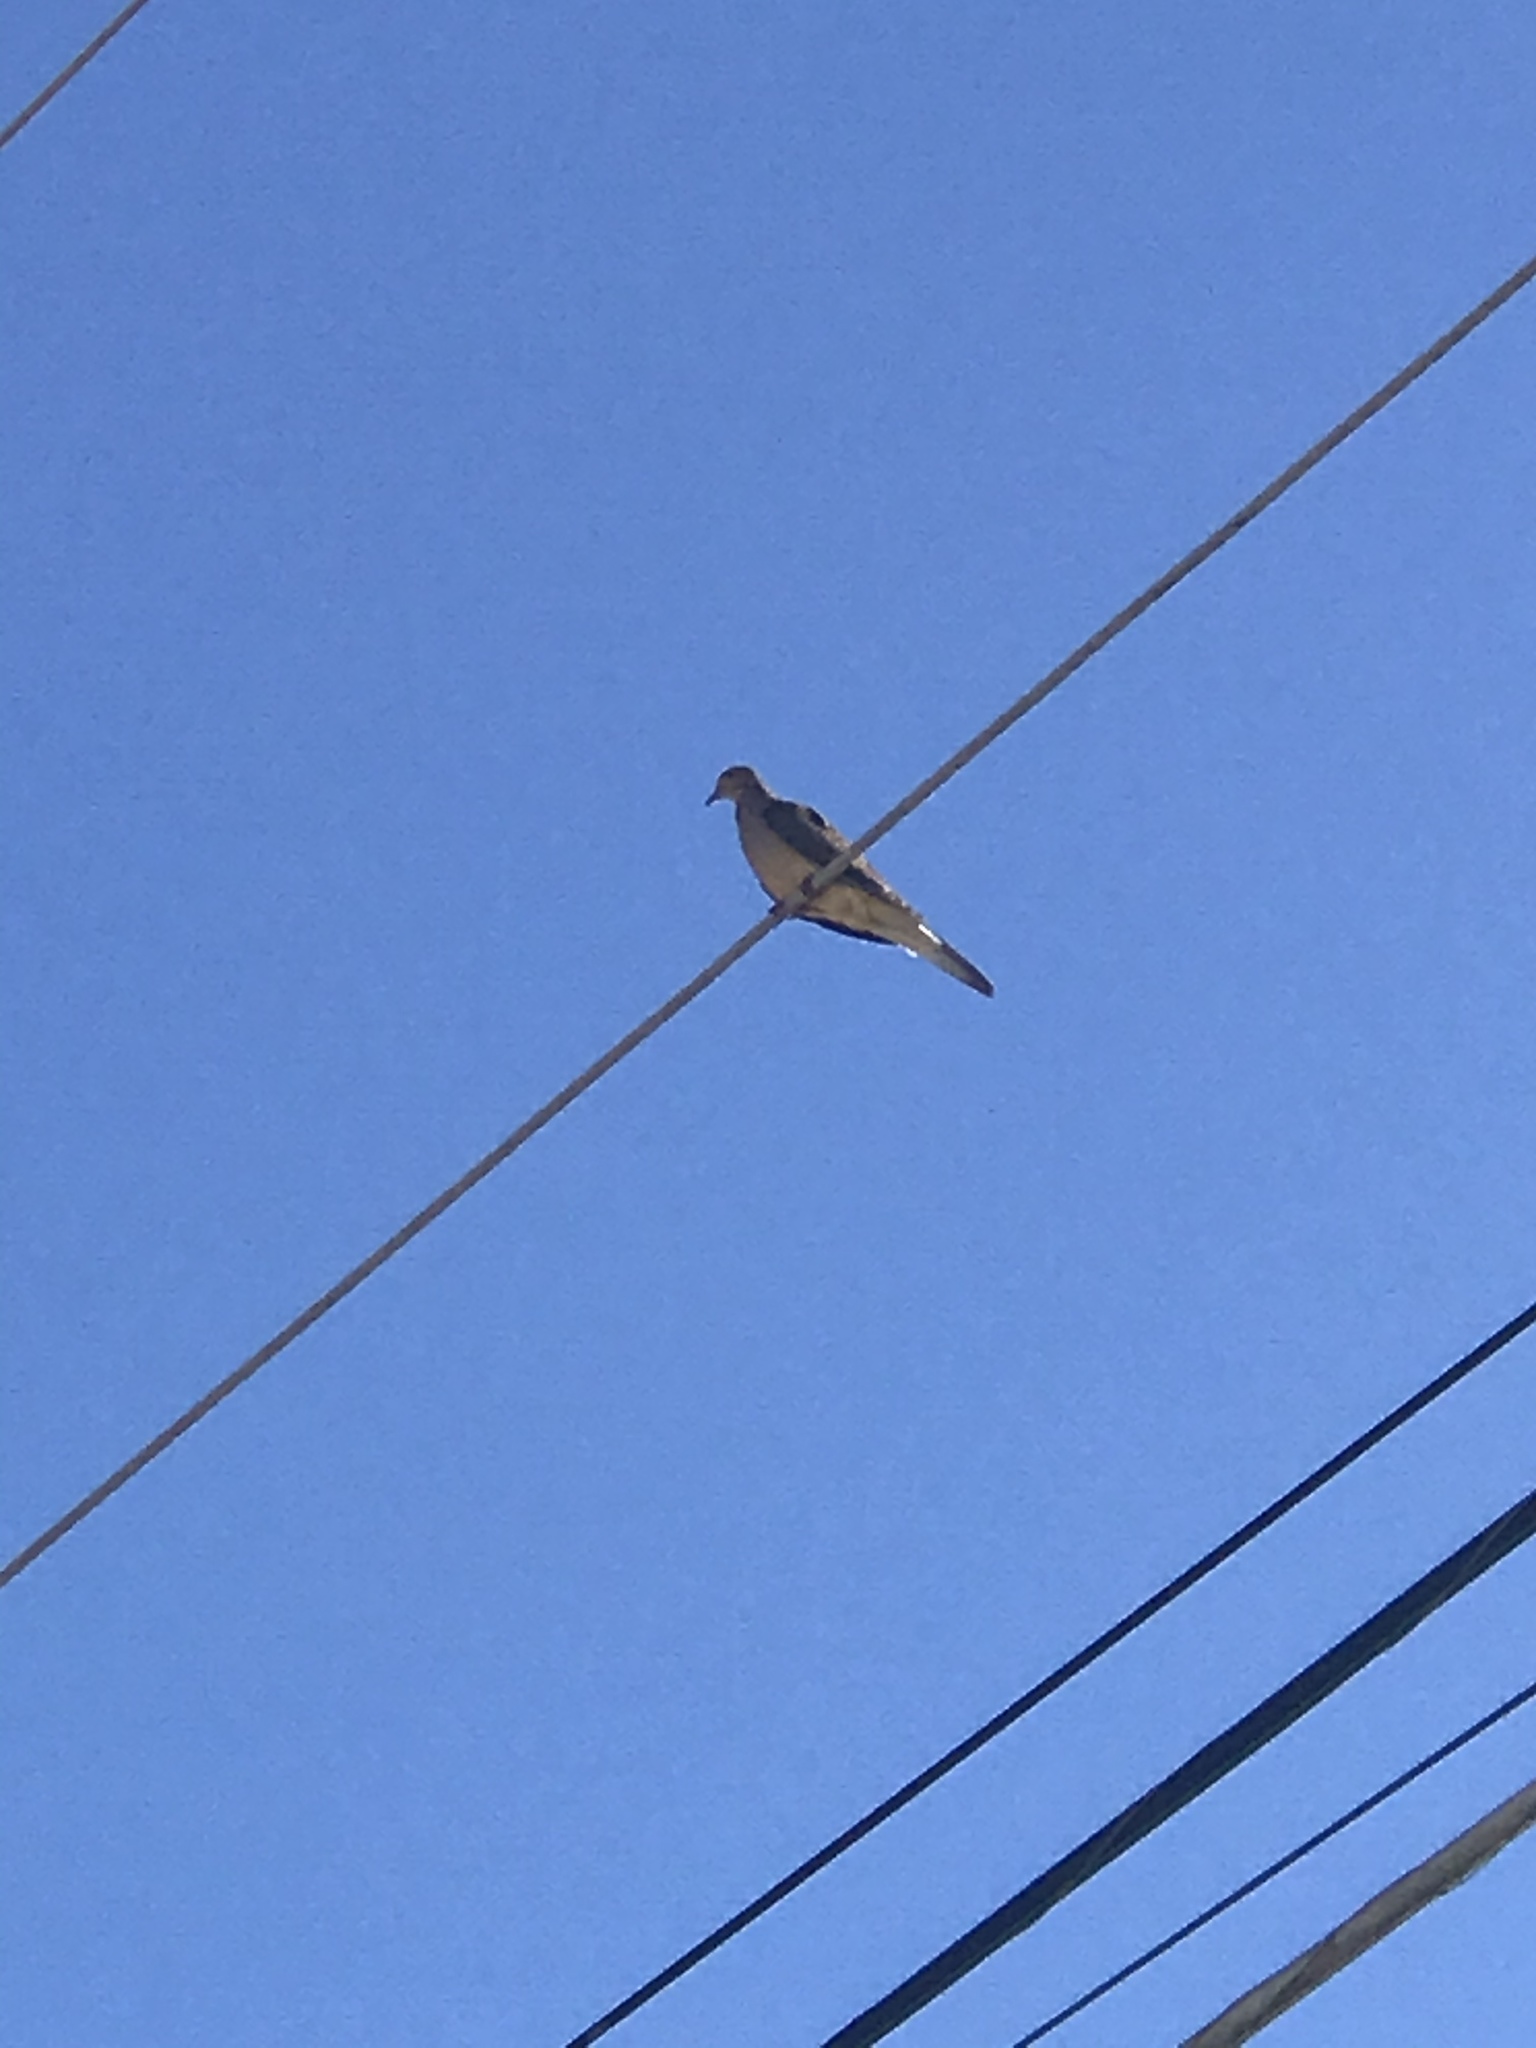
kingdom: Animalia
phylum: Chordata
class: Aves
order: Columbiformes
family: Columbidae
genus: Zenaida
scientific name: Zenaida macroura
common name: Mourning dove
